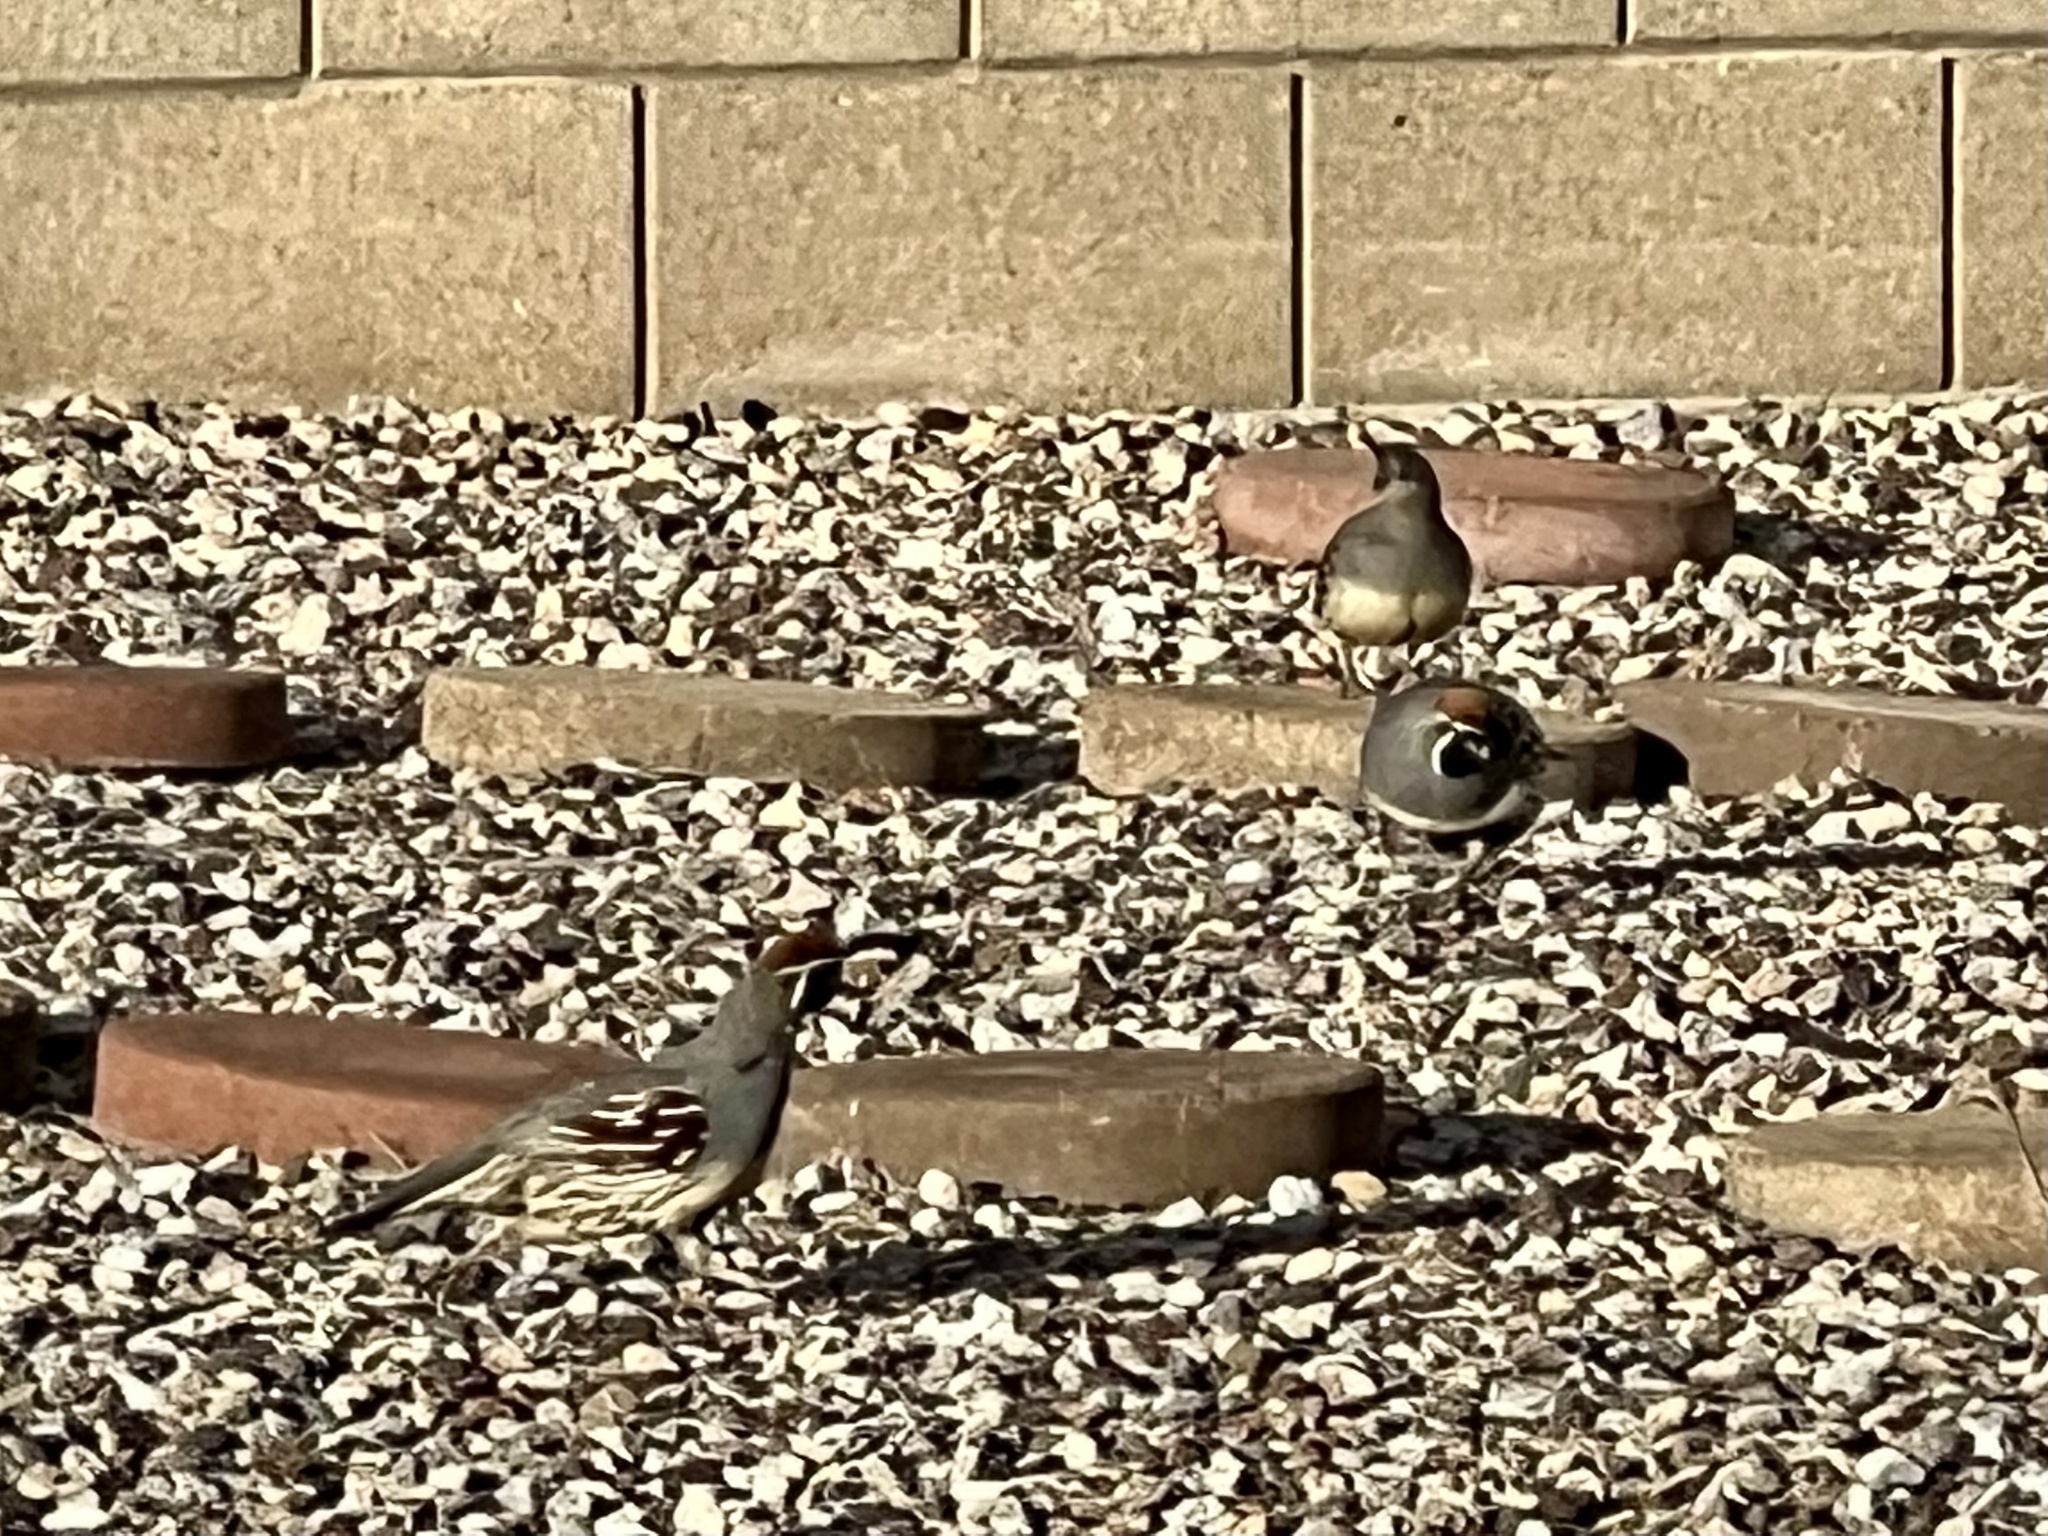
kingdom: Animalia
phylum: Chordata
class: Aves
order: Galliformes
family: Odontophoridae
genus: Callipepla
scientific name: Callipepla gambelii
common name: Gambel's quail
